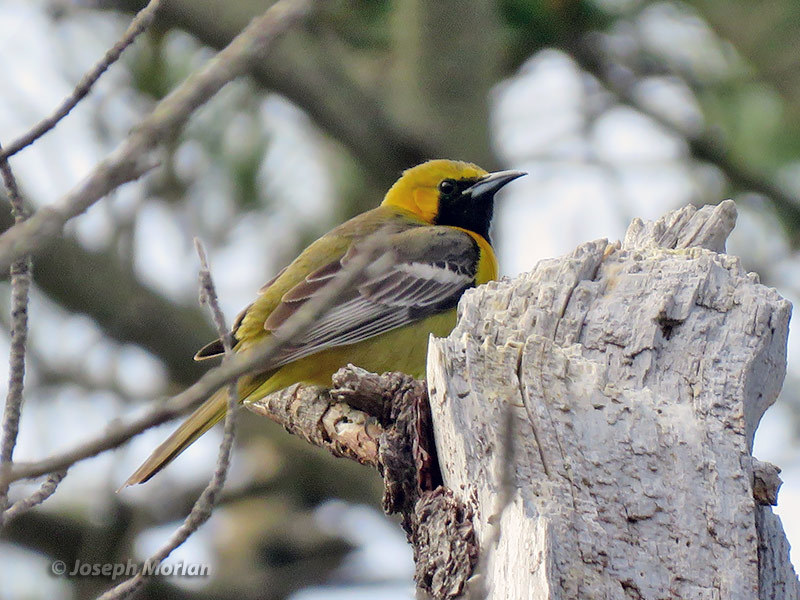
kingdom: Animalia
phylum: Chordata
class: Aves
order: Passeriformes
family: Icteridae
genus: Icterus
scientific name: Icterus cucullatus
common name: Hooded oriole
